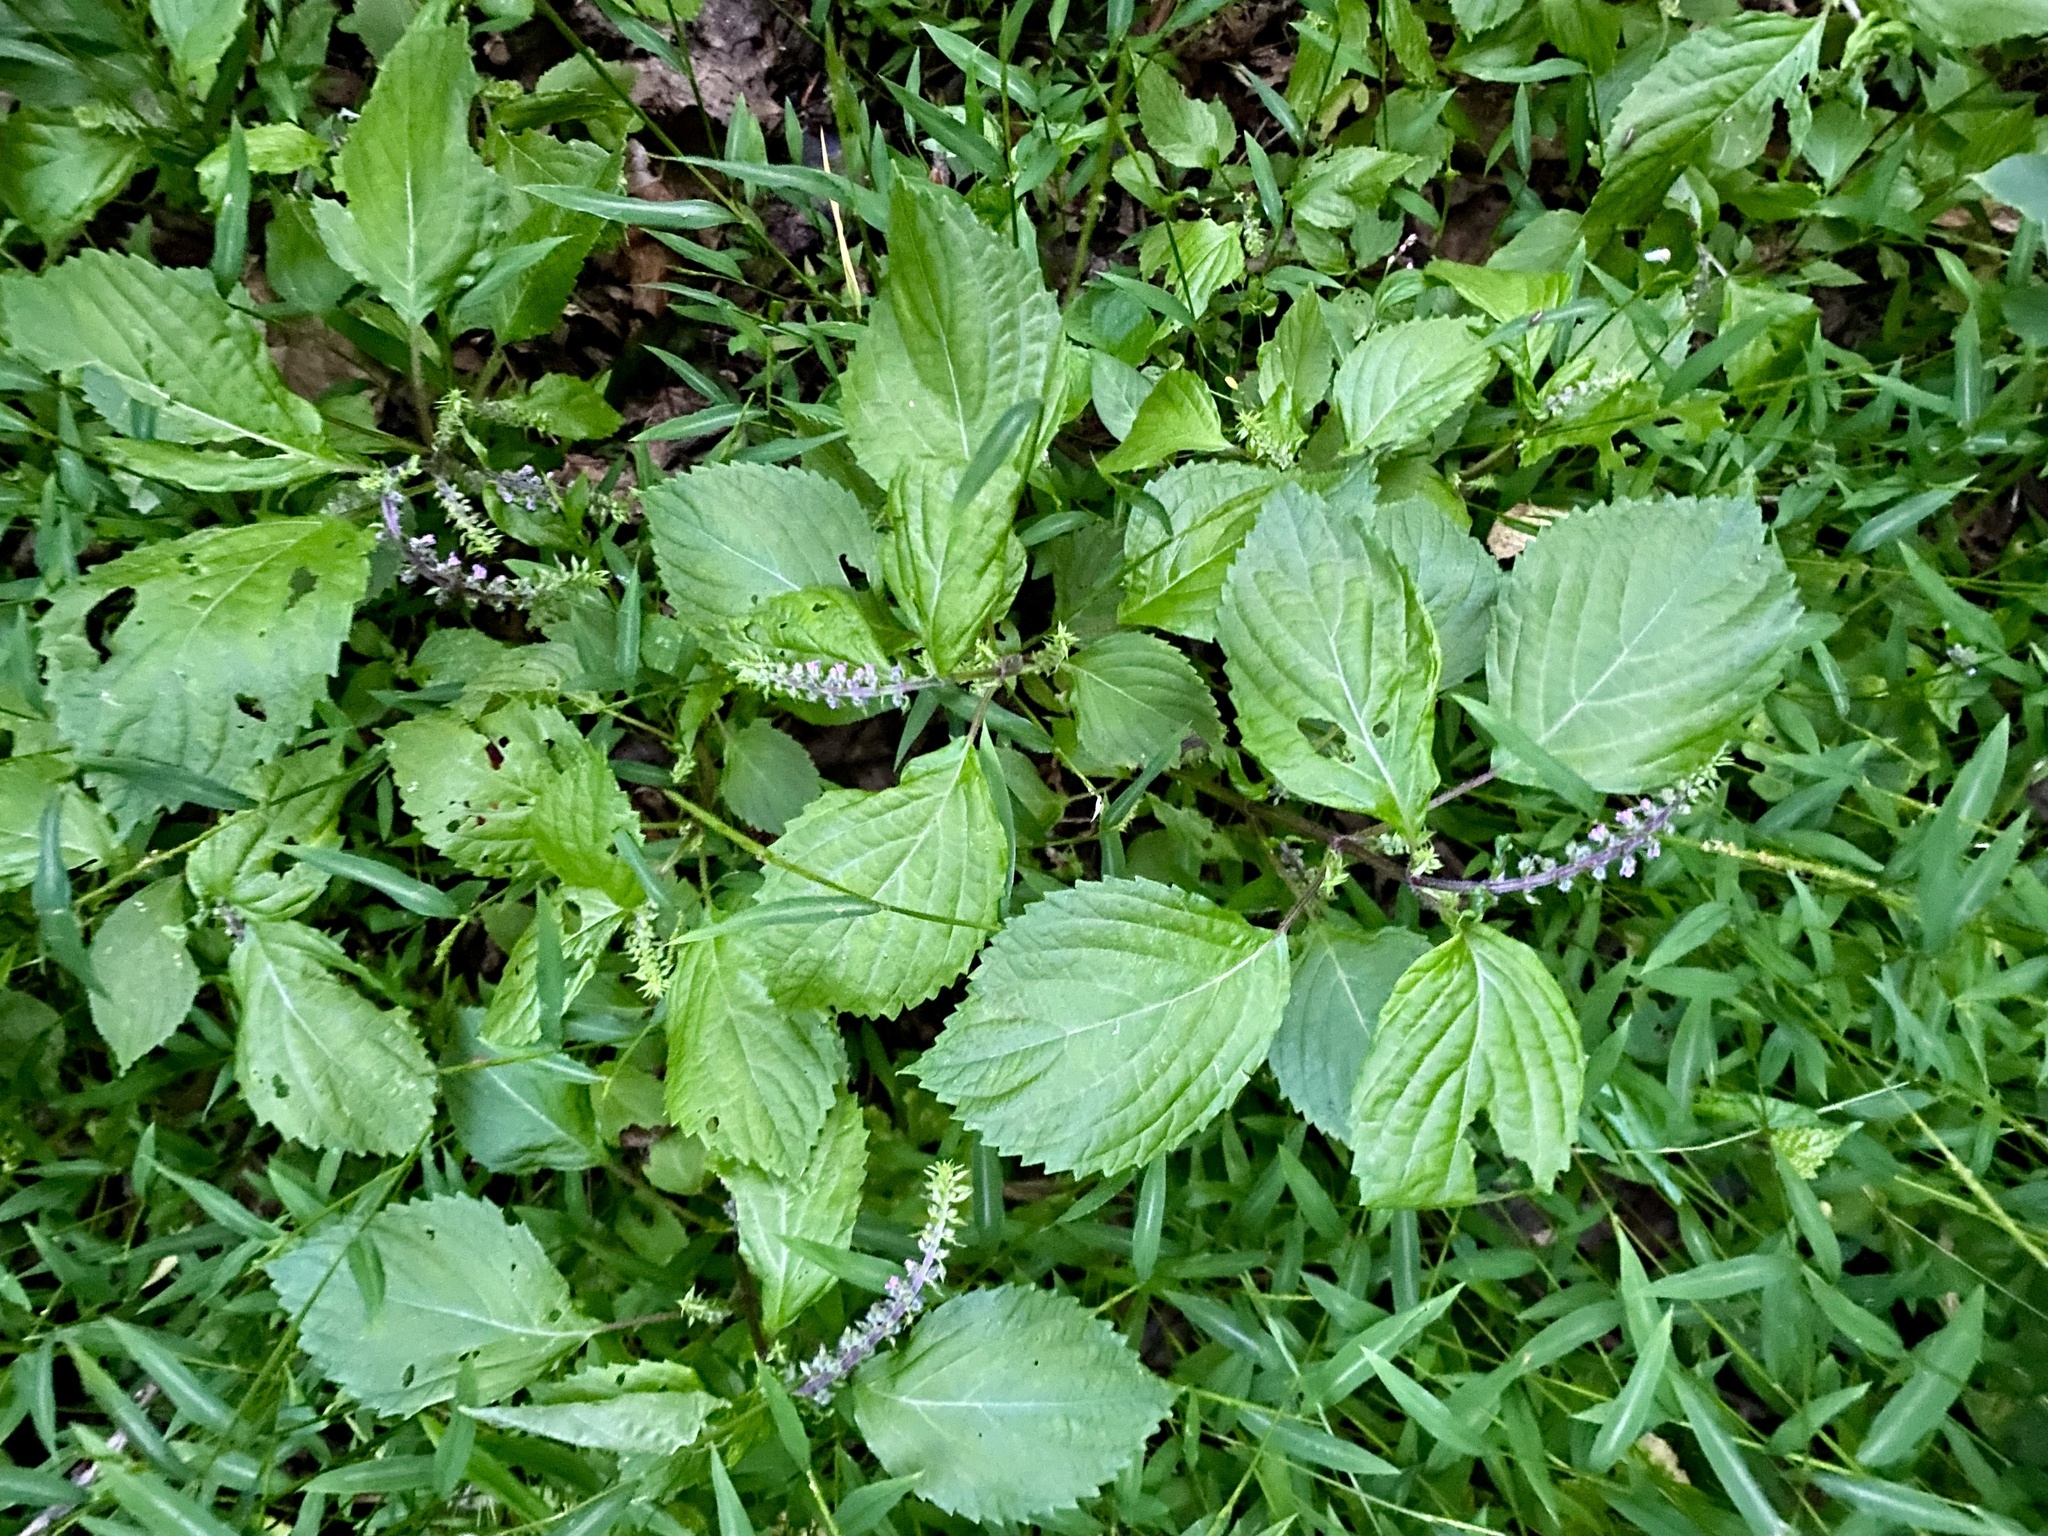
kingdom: Plantae
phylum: Tracheophyta
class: Magnoliopsida
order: Lamiales
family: Lamiaceae
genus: Perilla
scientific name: Perilla frutescens
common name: Perilla
